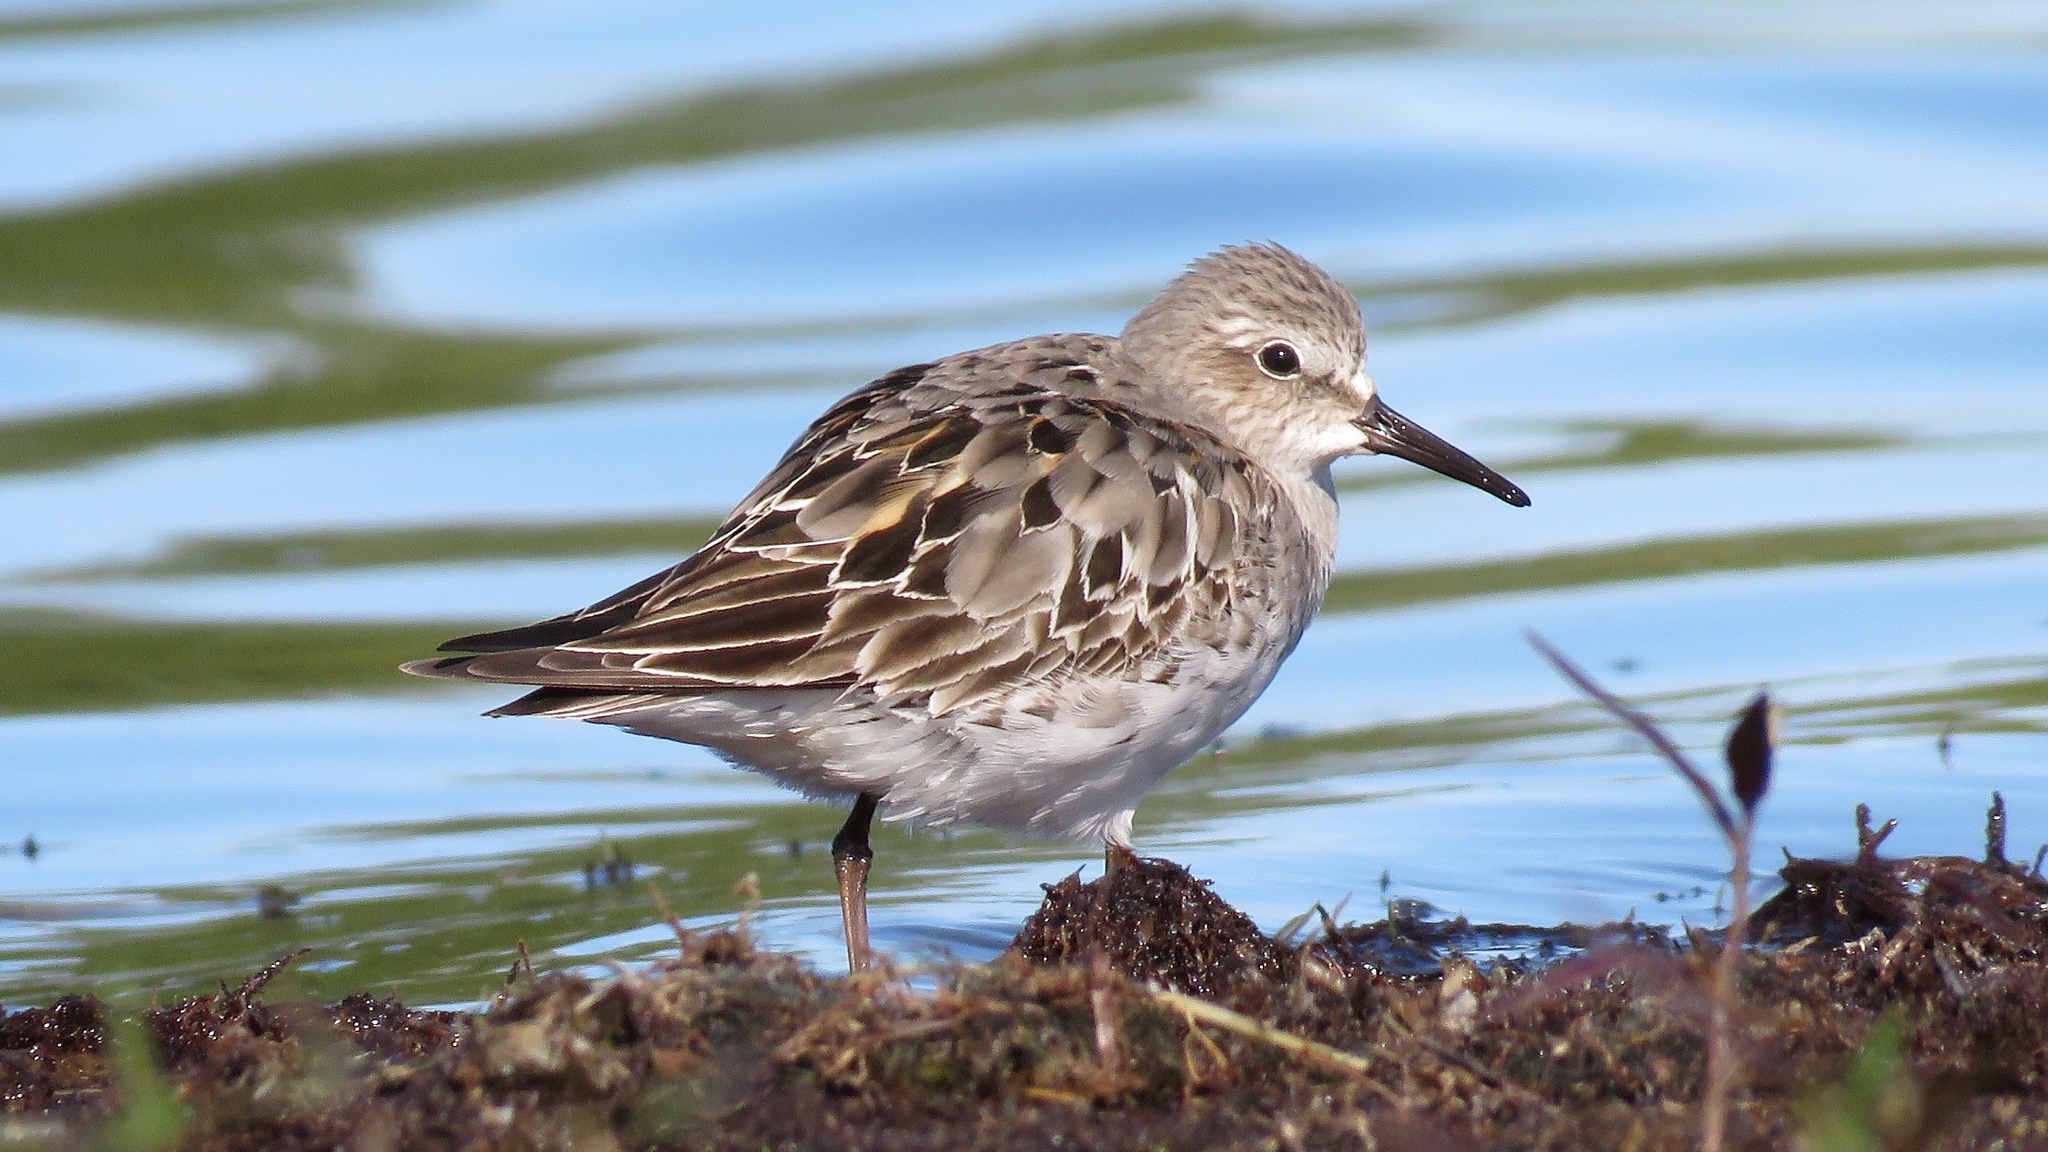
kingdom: Animalia
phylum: Chordata
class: Aves
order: Charadriiformes
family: Scolopacidae
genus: Calidris
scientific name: Calidris fuscicollis
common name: White-rumped sandpiper
